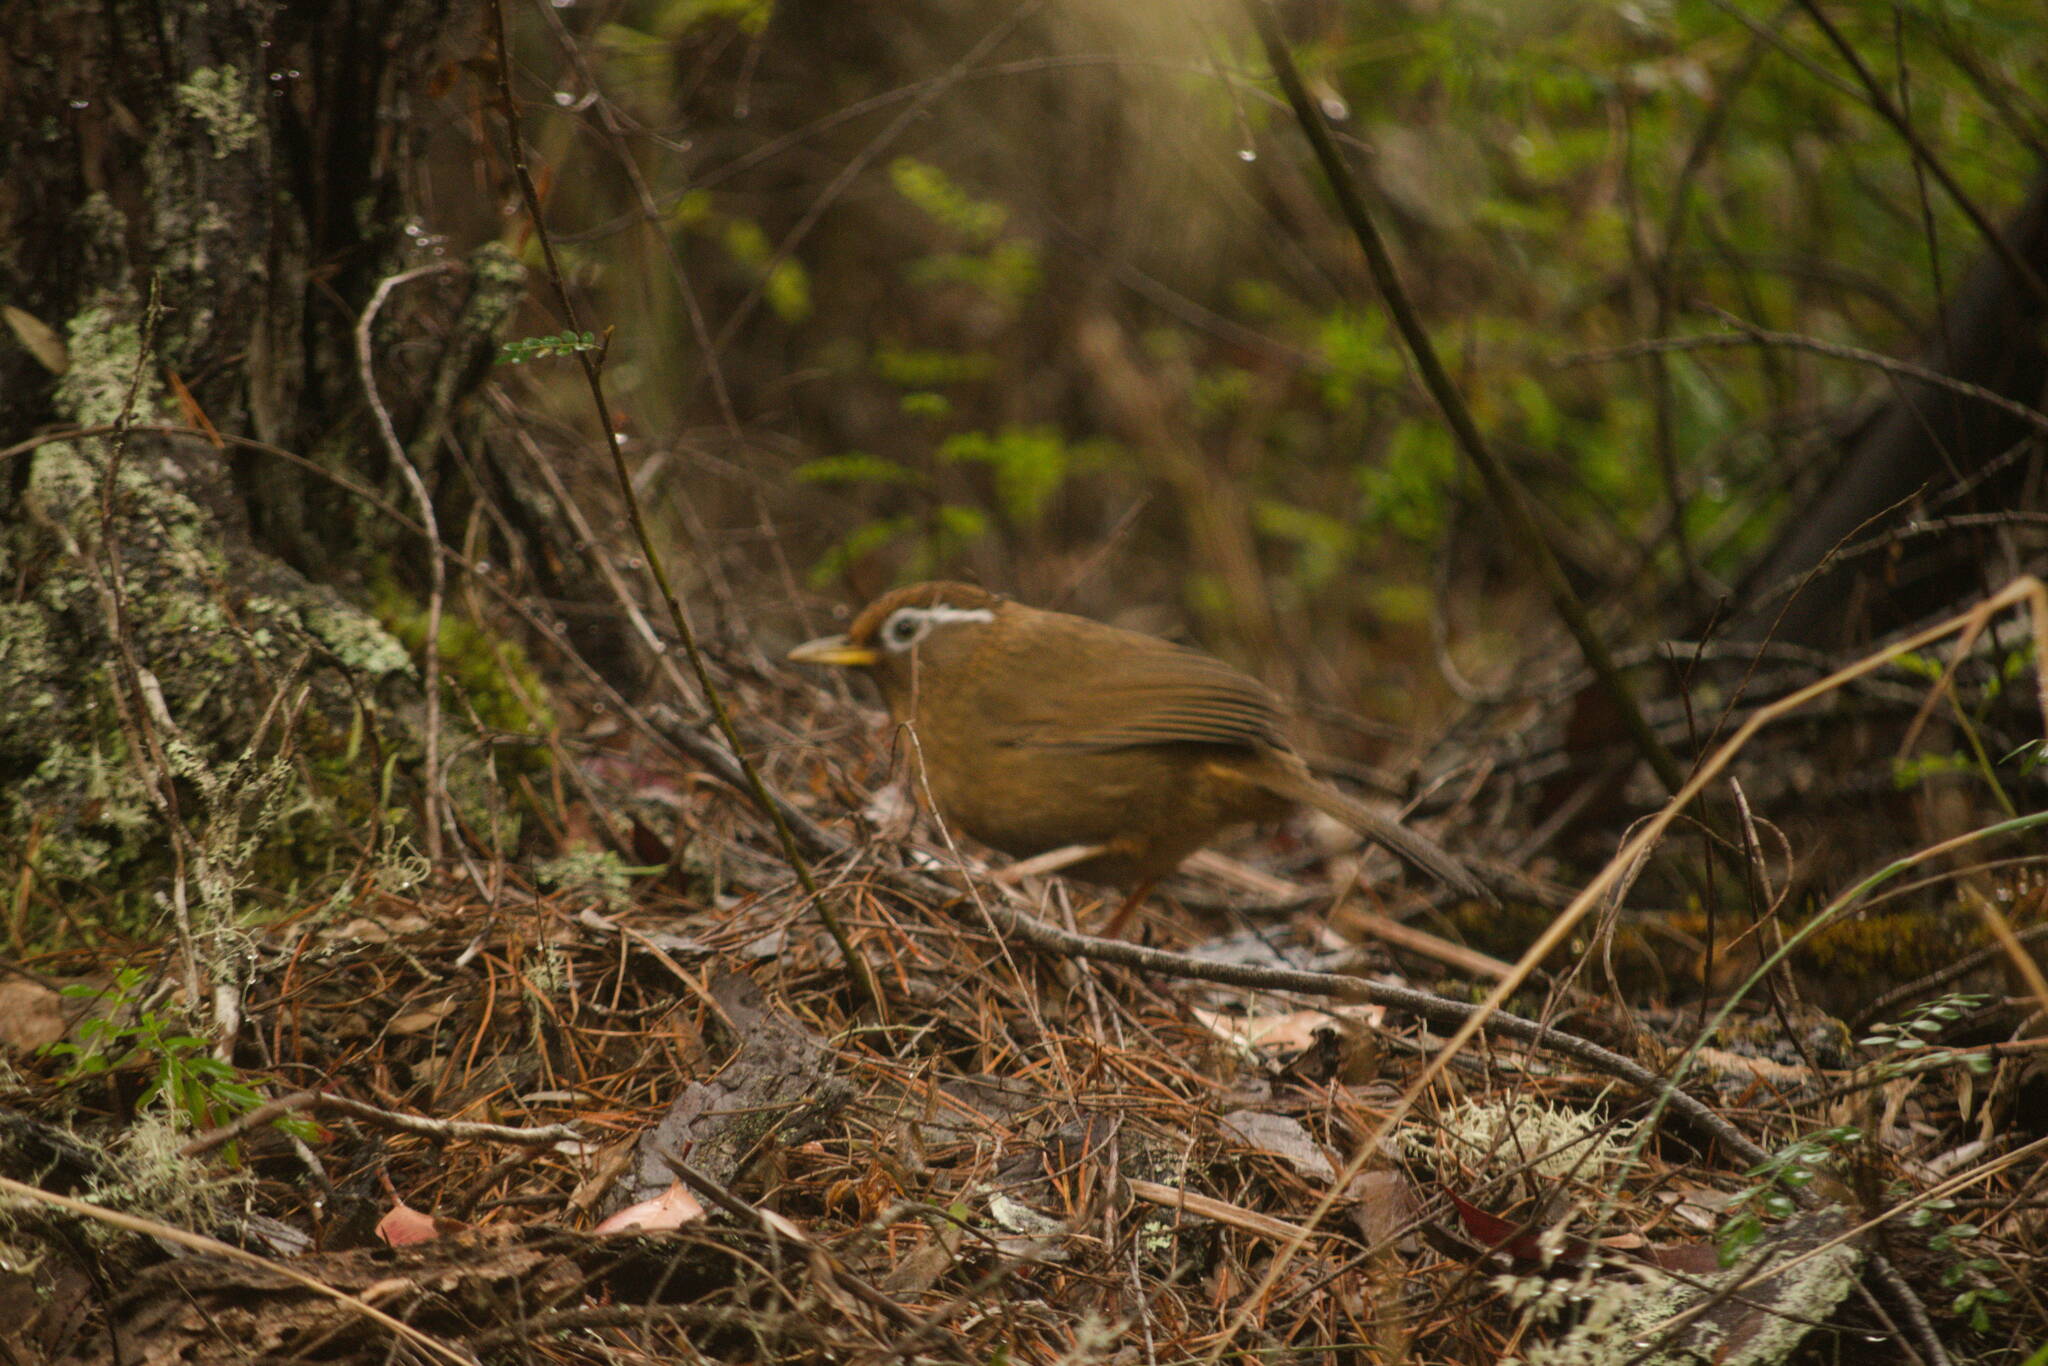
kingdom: Animalia
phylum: Chordata
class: Aves
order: Passeriformes
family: Leiothrichidae
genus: Garrulax
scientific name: Garrulax canorus
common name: Chinese hwamei
